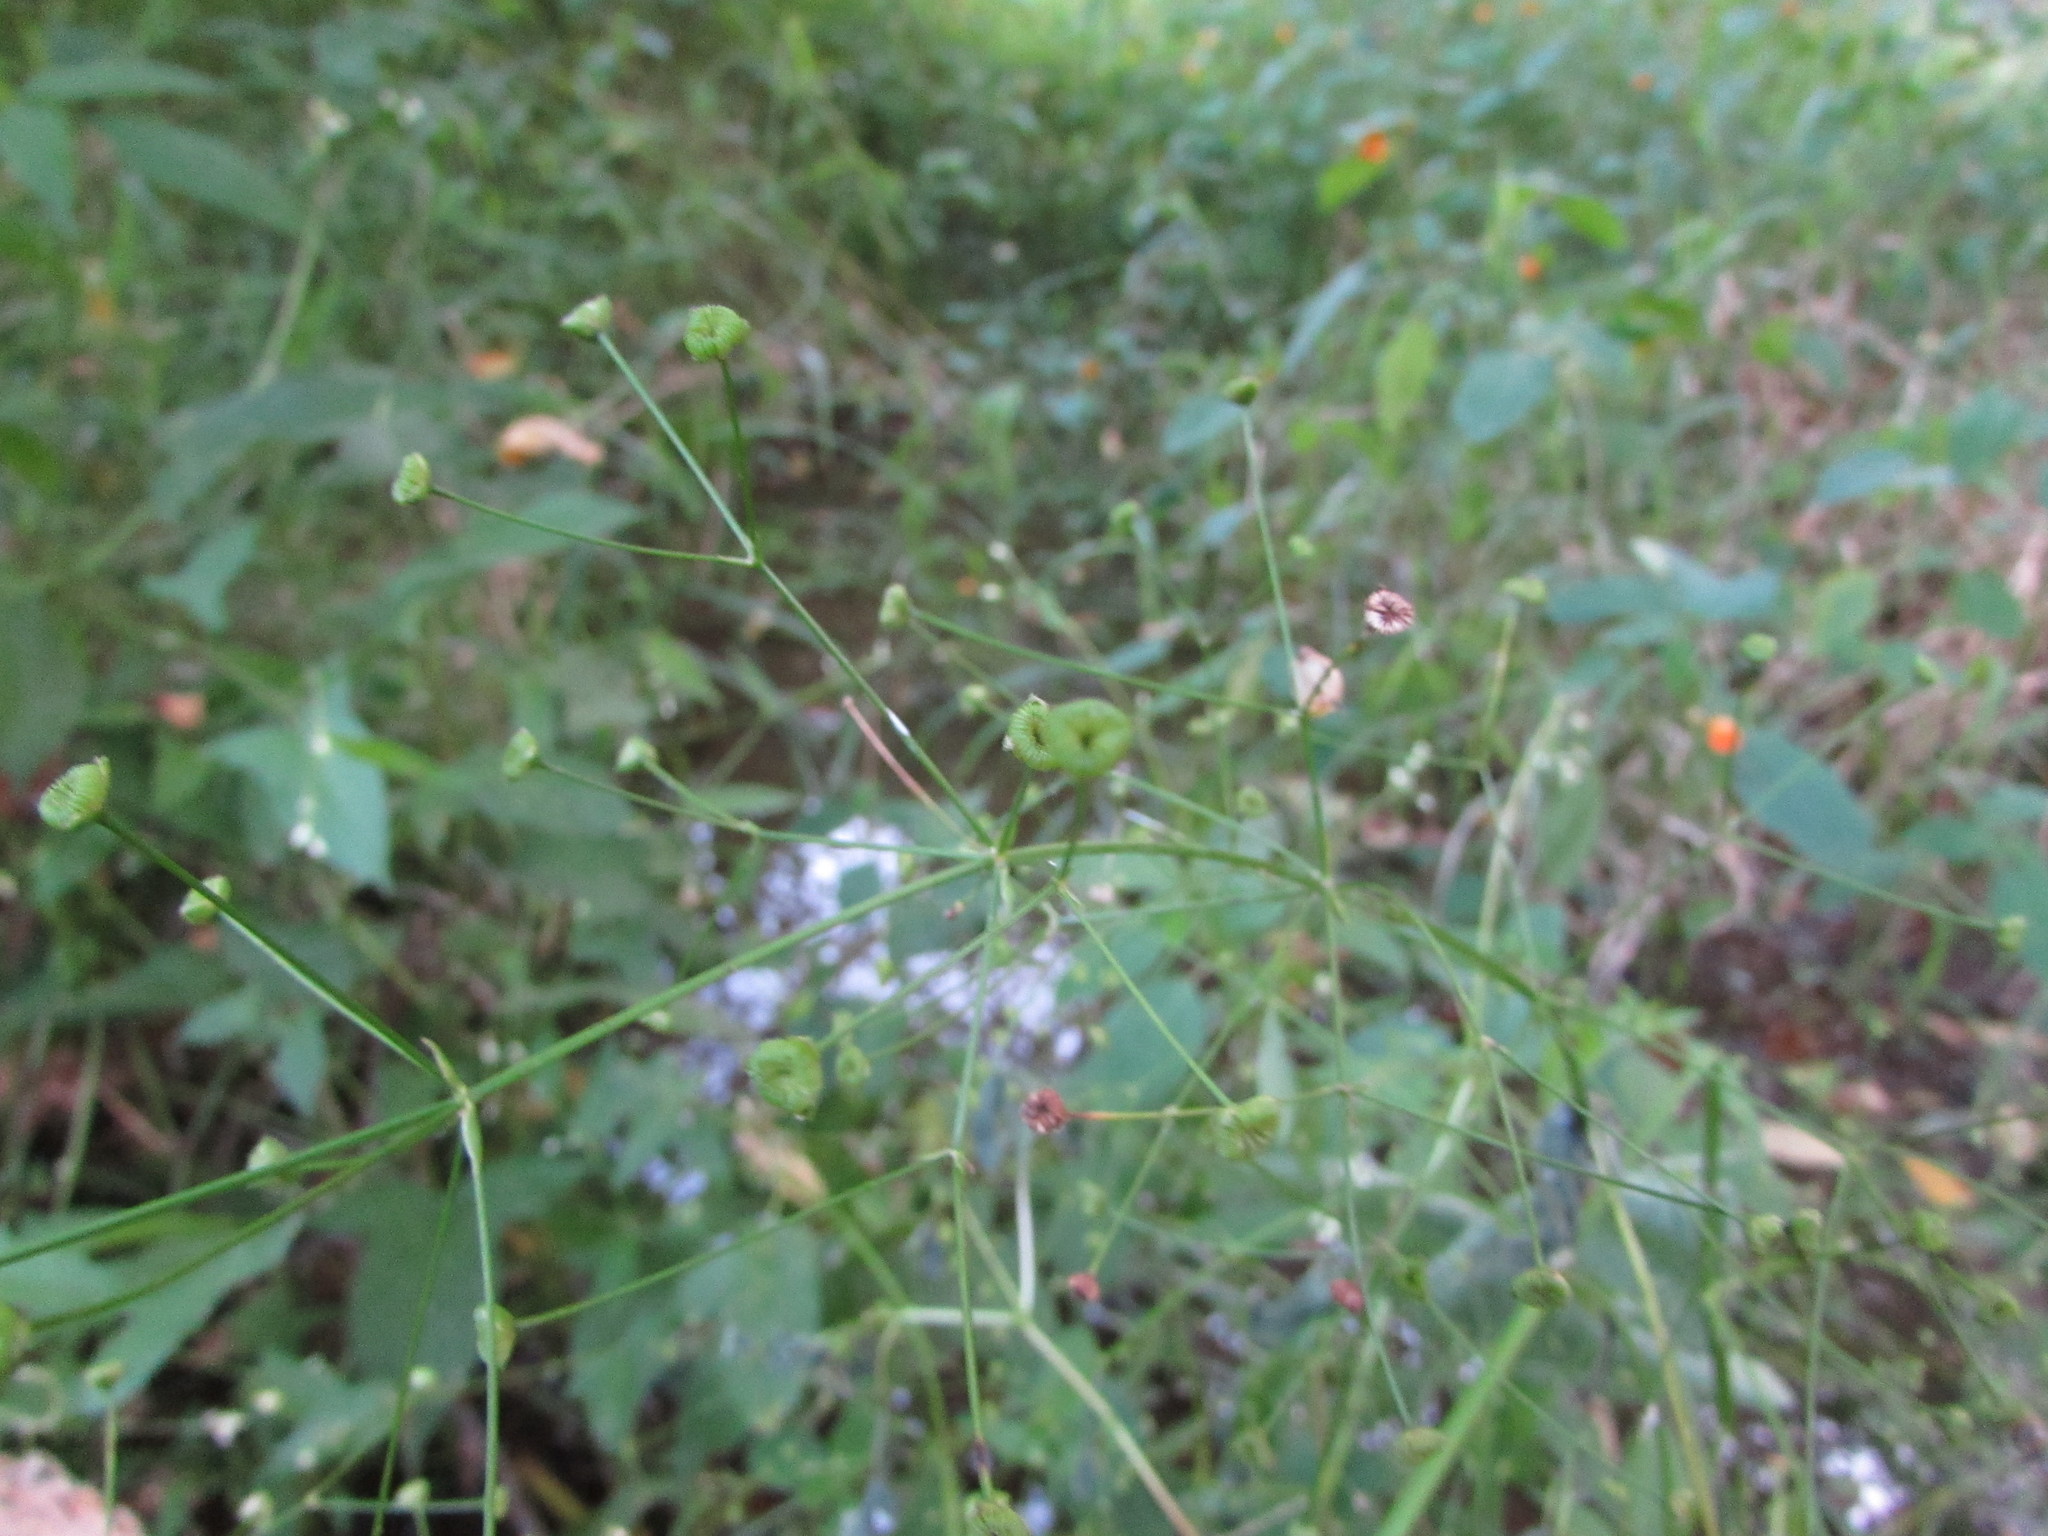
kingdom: Plantae
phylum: Tracheophyta
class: Liliopsida
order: Alismatales
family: Alismataceae
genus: Alisma
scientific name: Alisma subcordatum
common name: Southern water-plantain
